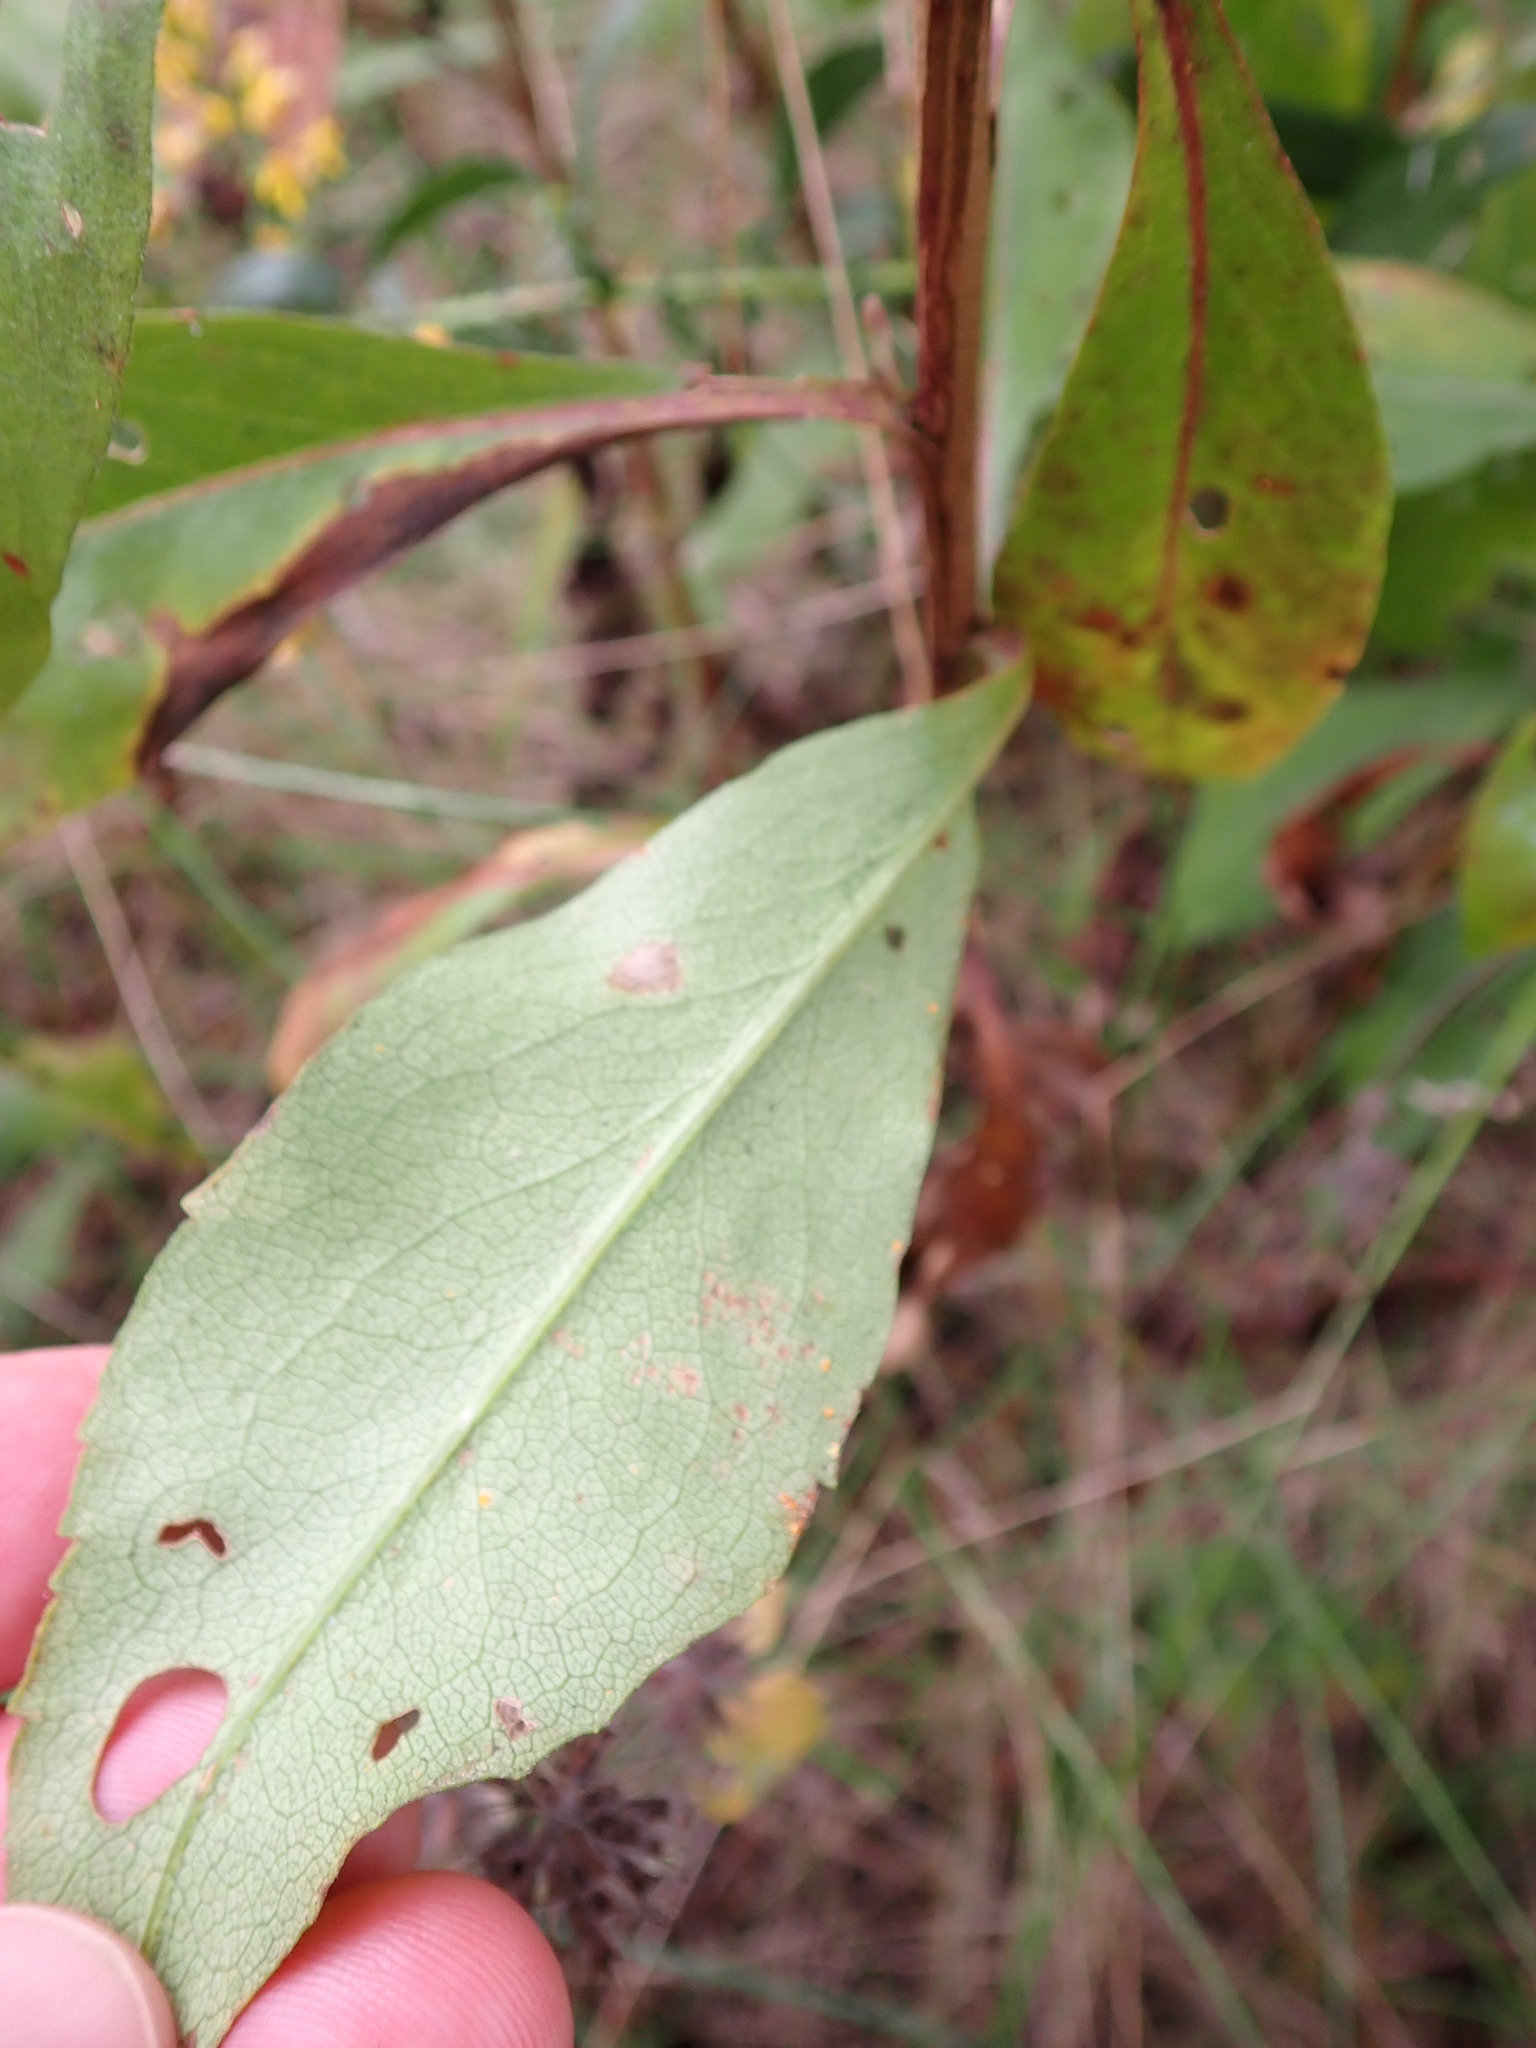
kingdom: Plantae
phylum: Tracheophyta
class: Magnoliopsida
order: Asterales
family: Asteraceae
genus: Solidago
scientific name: Solidago speciosa
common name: Showy goldenrod
